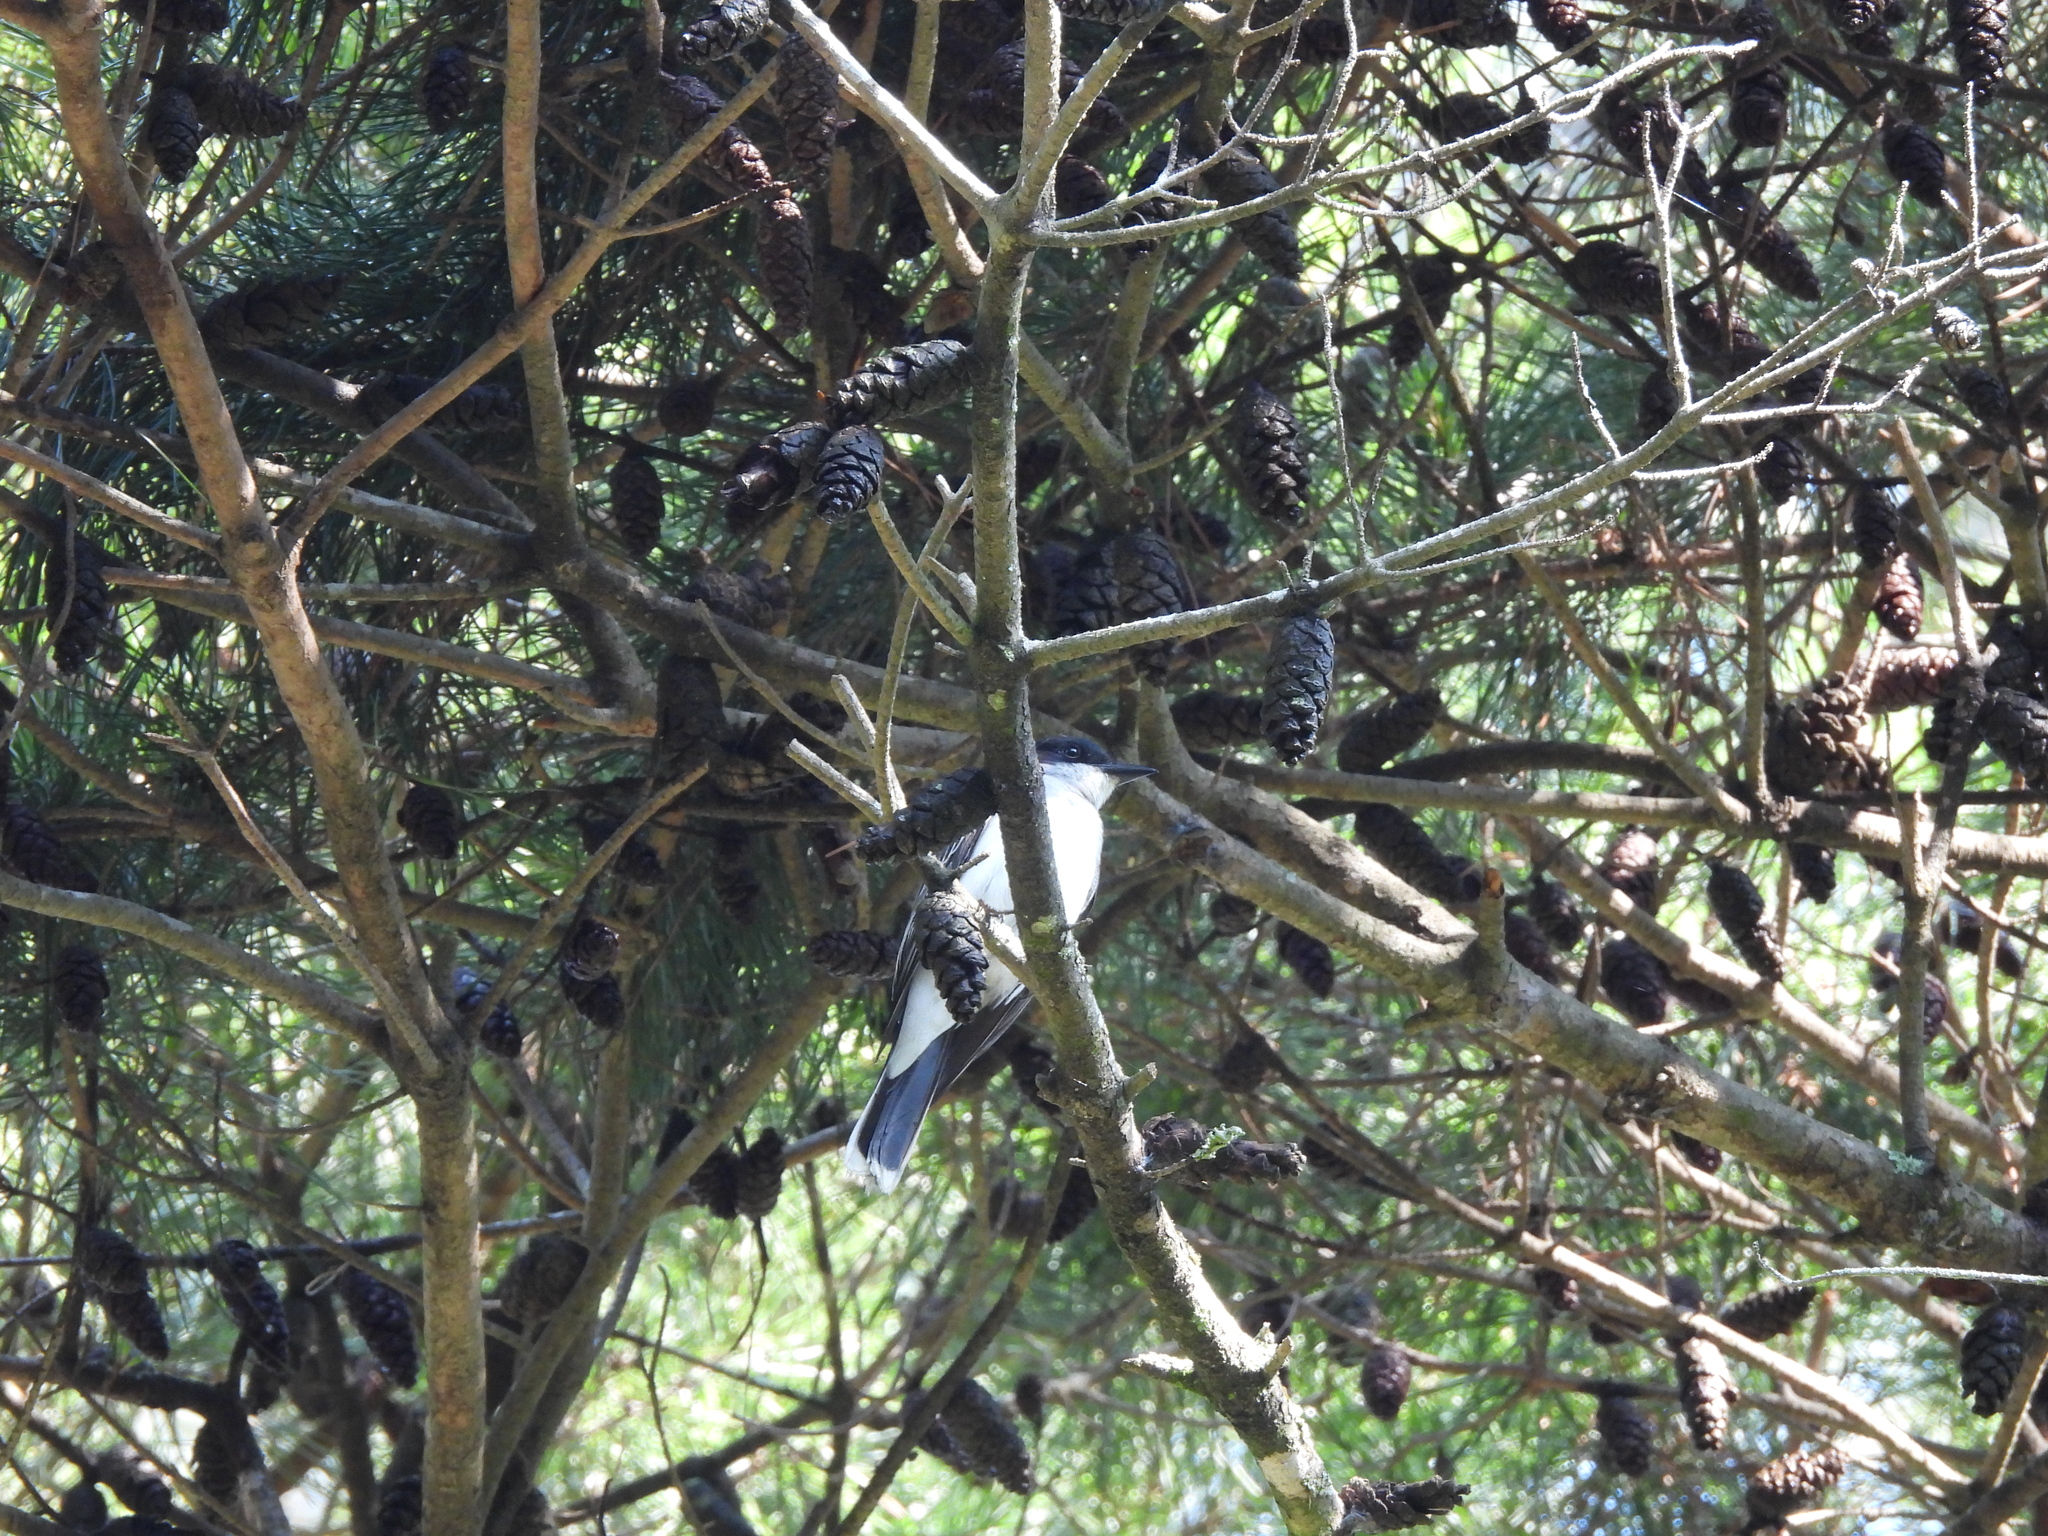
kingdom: Animalia
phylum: Chordata
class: Aves
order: Passeriformes
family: Tyrannidae
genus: Tyrannus
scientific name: Tyrannus tyrannus
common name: Eastern kingbird
